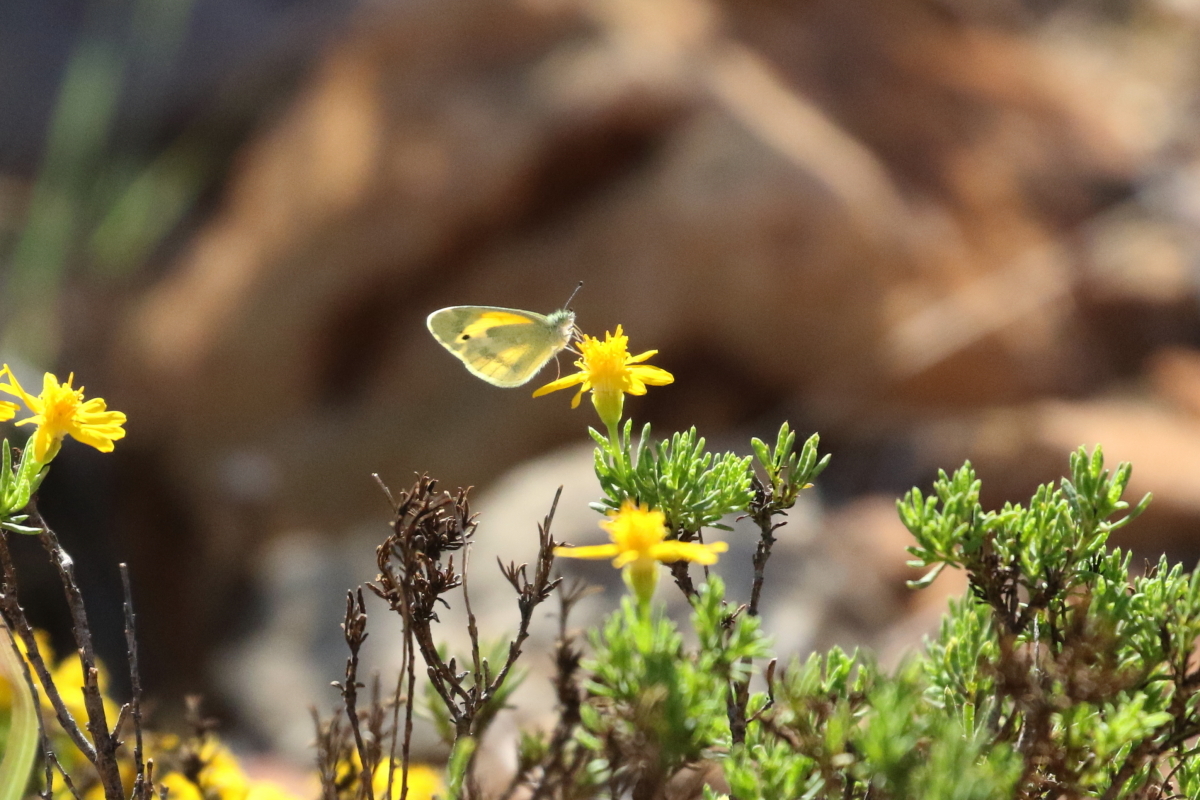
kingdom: Animalia
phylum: Arthropoda
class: Insecta
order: Lepidoptera
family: Pieridae
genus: Nathalis
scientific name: Nathalis iole
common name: Dainty sulphur
